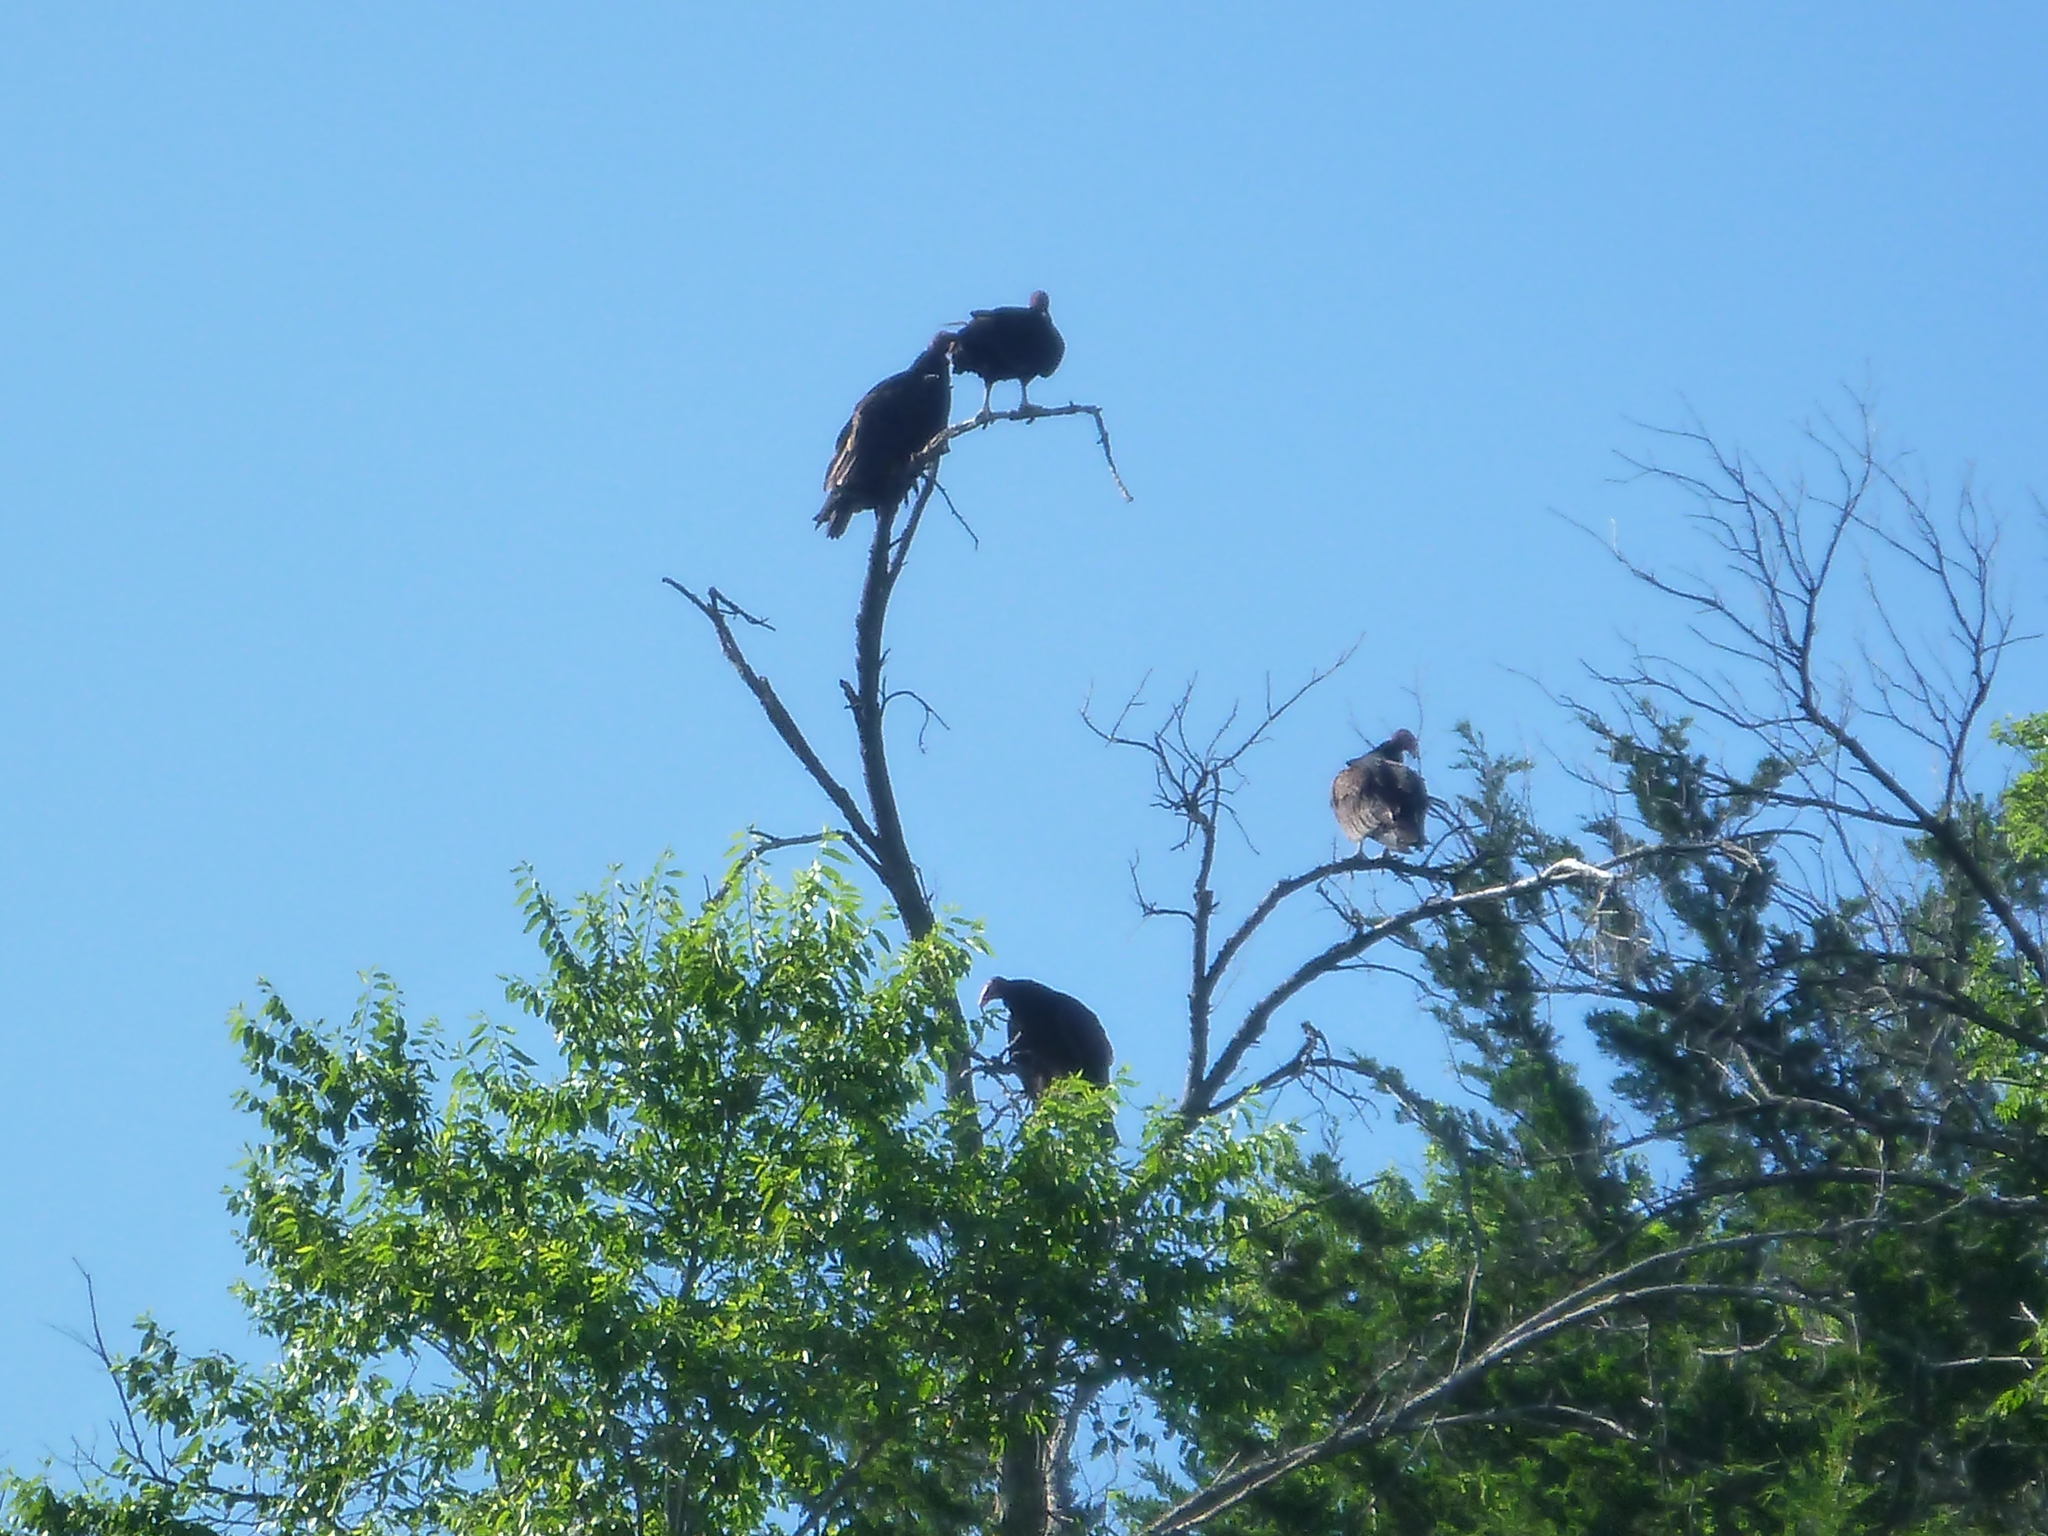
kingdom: Animalia
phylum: Chordata
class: Aves
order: Accipitriformes
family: Cathartidae
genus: Cathartes
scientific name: Cathartes aura
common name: Turkey vulture
